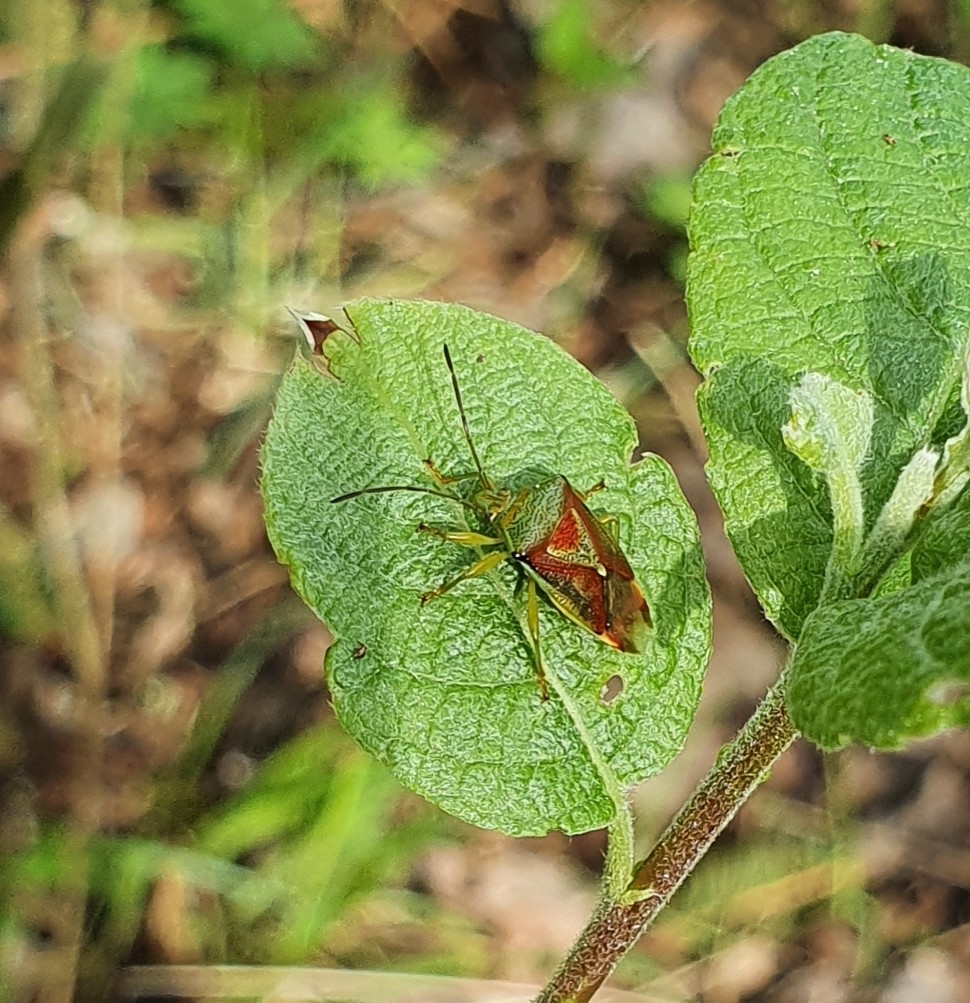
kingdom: Animalia
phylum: Arthropoda
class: Insecta
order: Hemiptera
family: Acanthosomatidae
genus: Elasmostethus
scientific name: Elasmostethus
